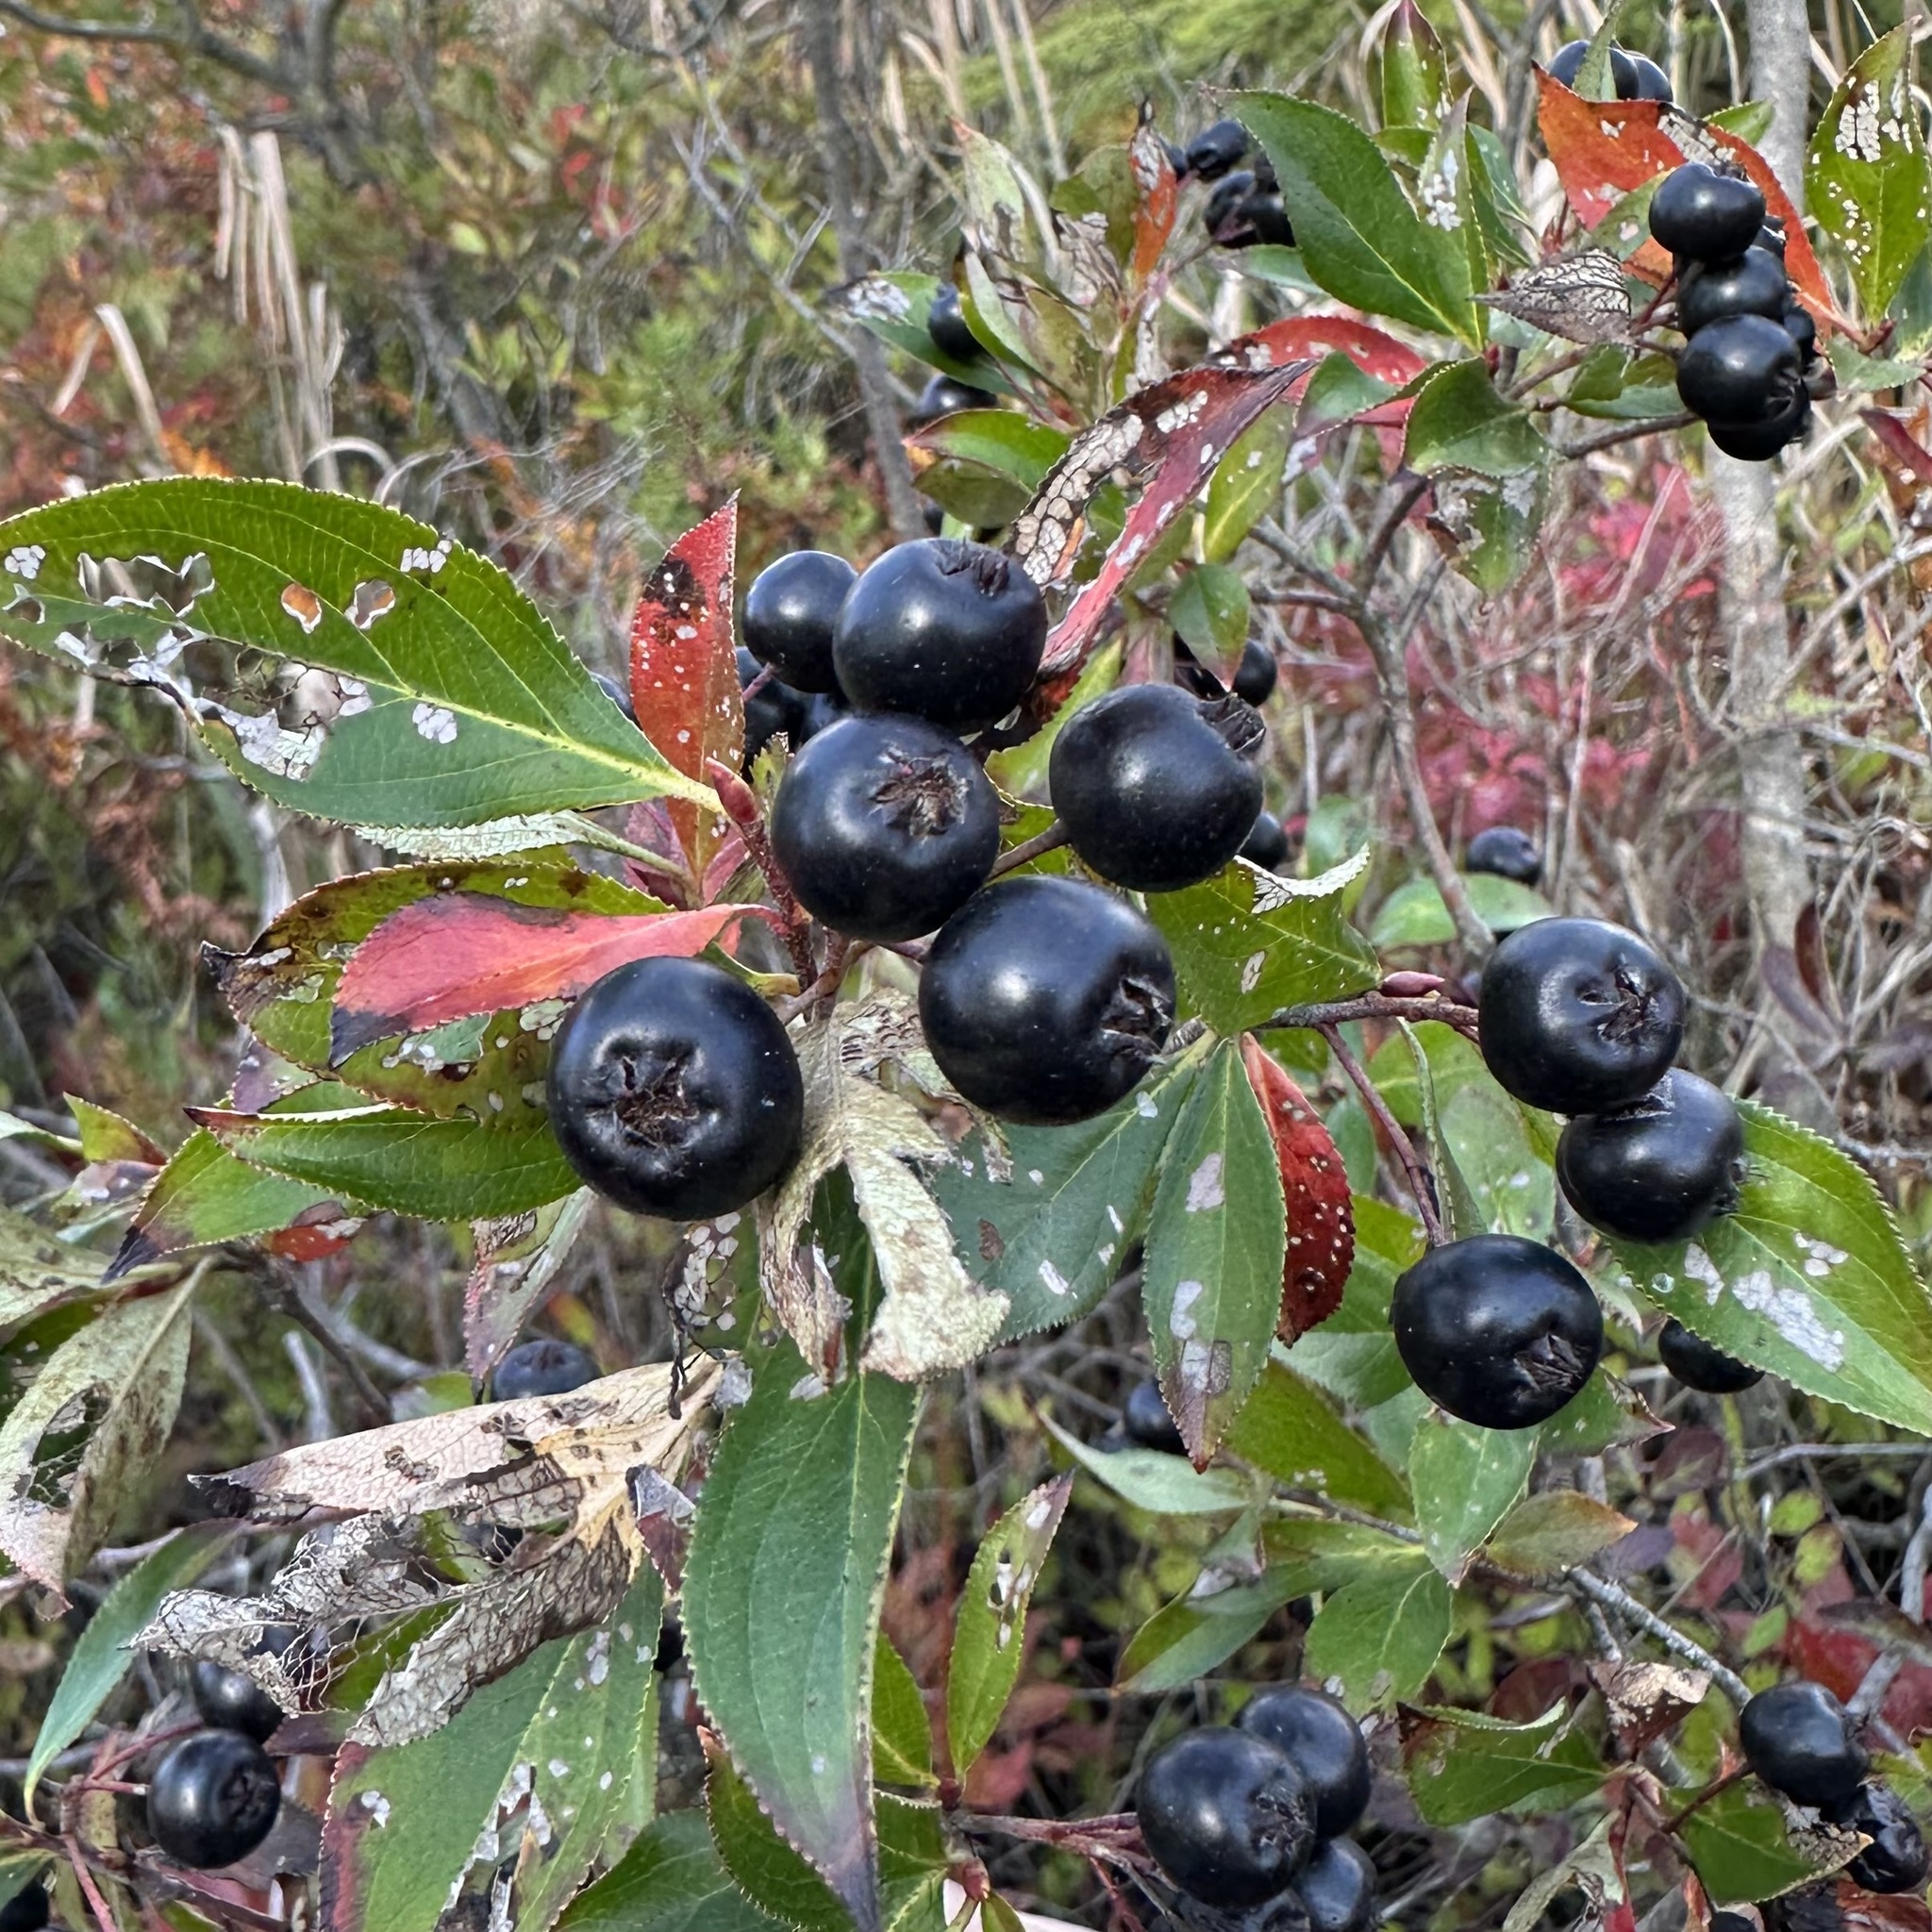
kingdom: Plantae
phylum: Tracheophyta
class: Magnoliopsida
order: Rosales
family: Rosaceae
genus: Aronia
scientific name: Aronia melanocarpa
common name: Black chokeberry
